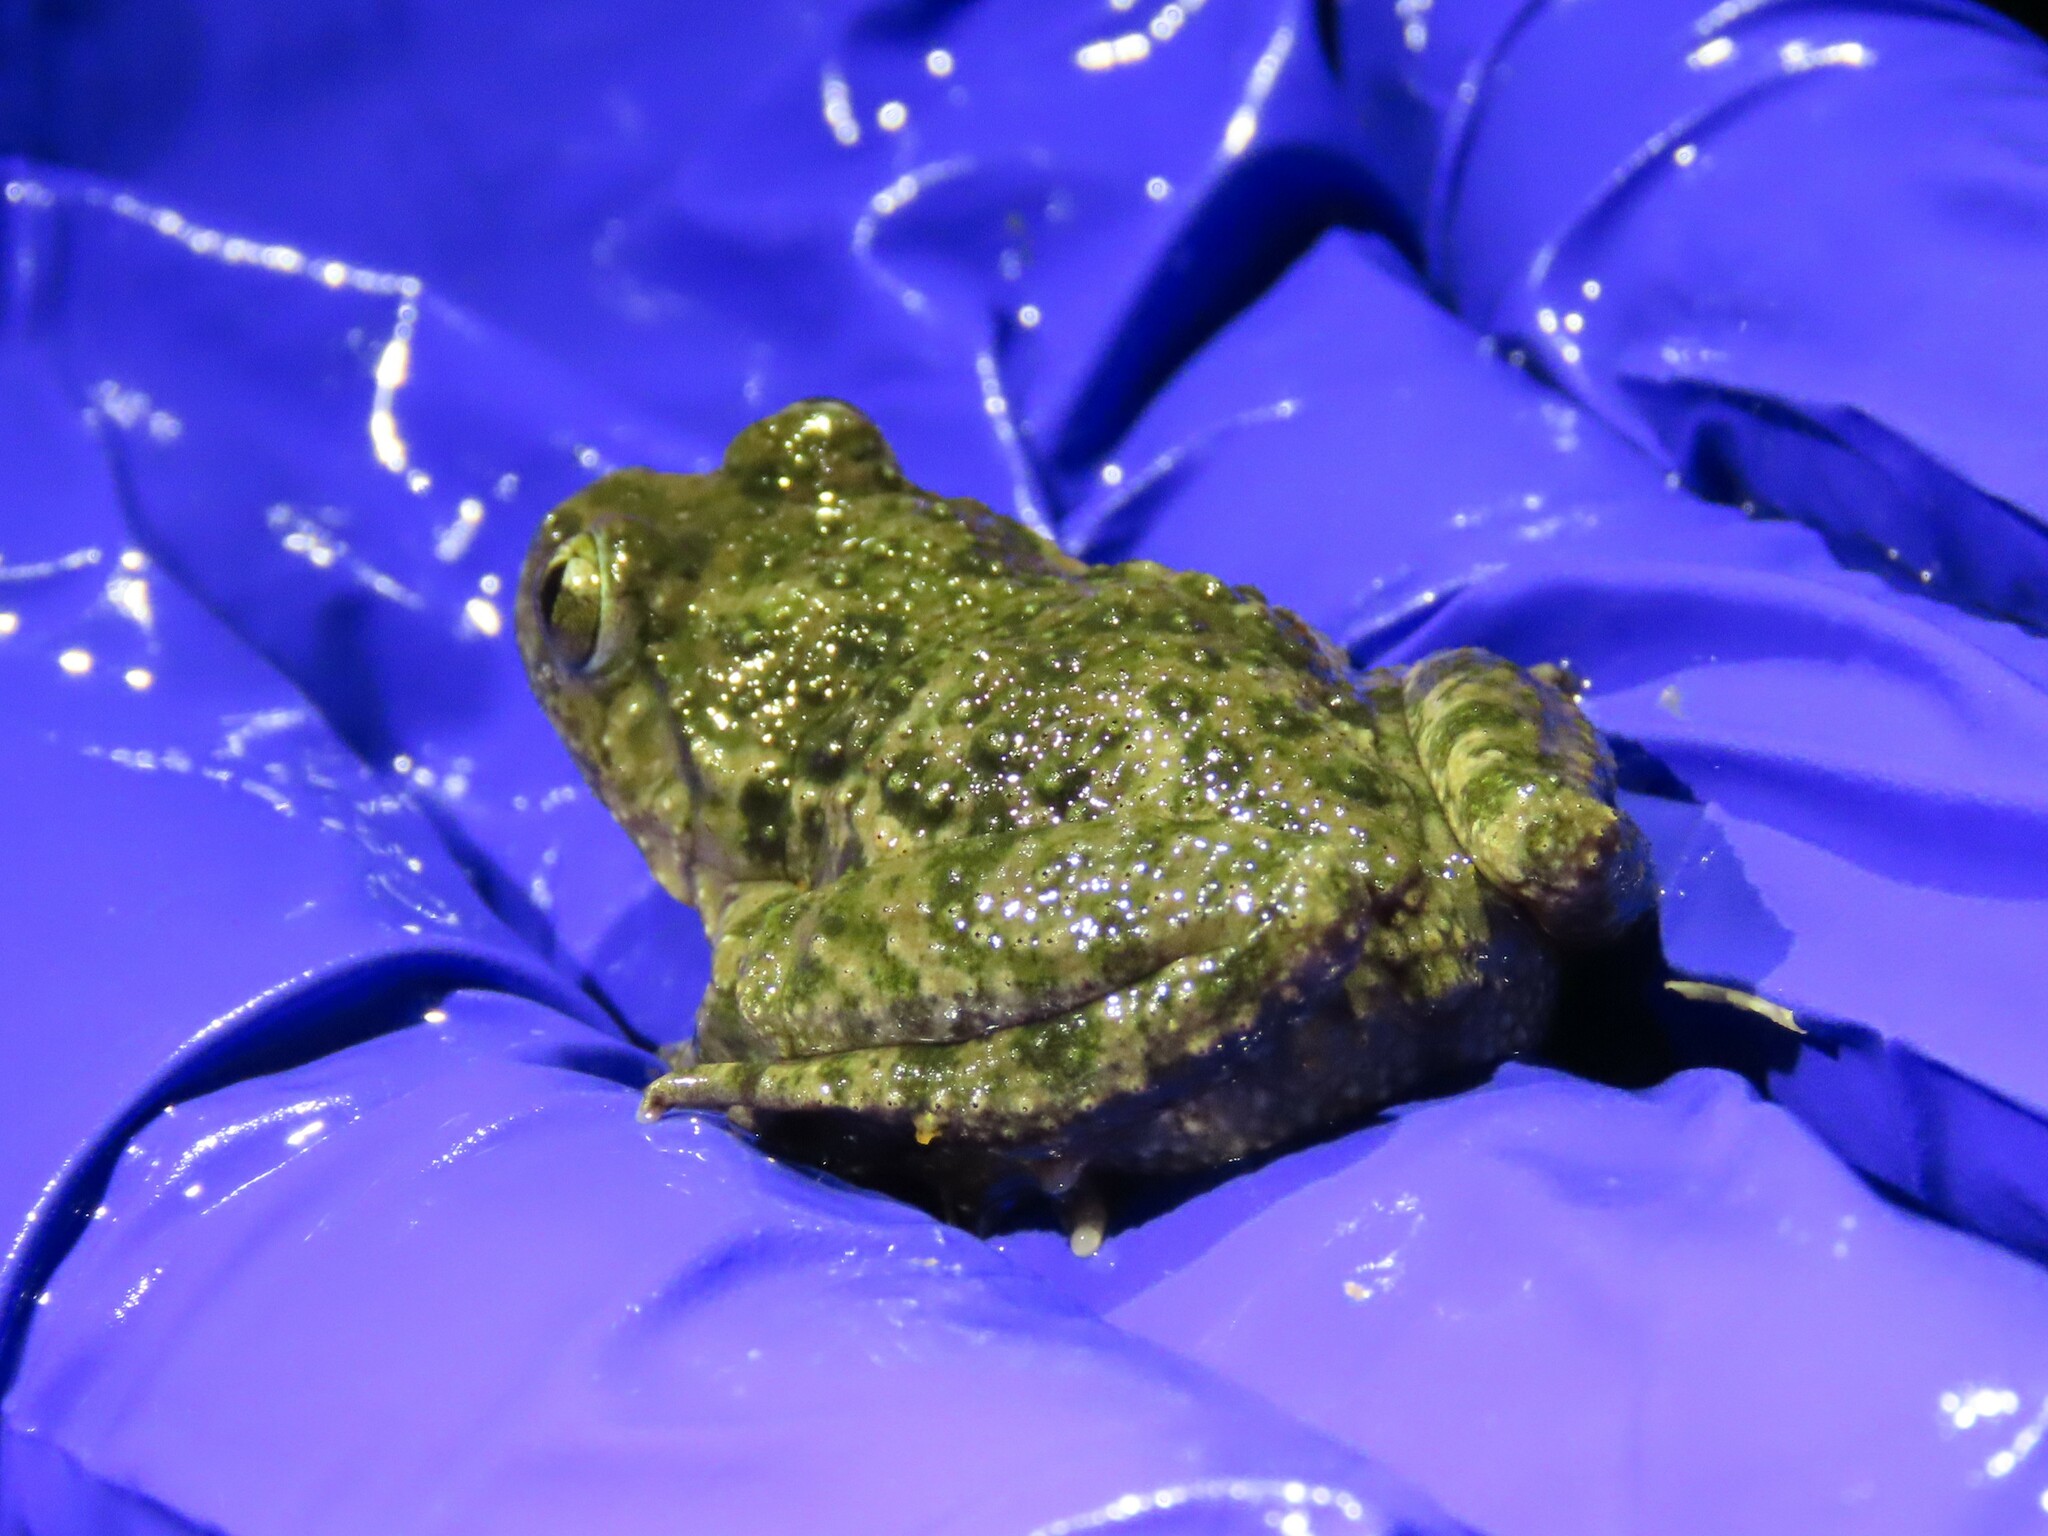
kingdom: Animalia
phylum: Chordata
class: Amphibia
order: Anura
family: Pelodytidae
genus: Pelodytes
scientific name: Pelodytes hespericus
